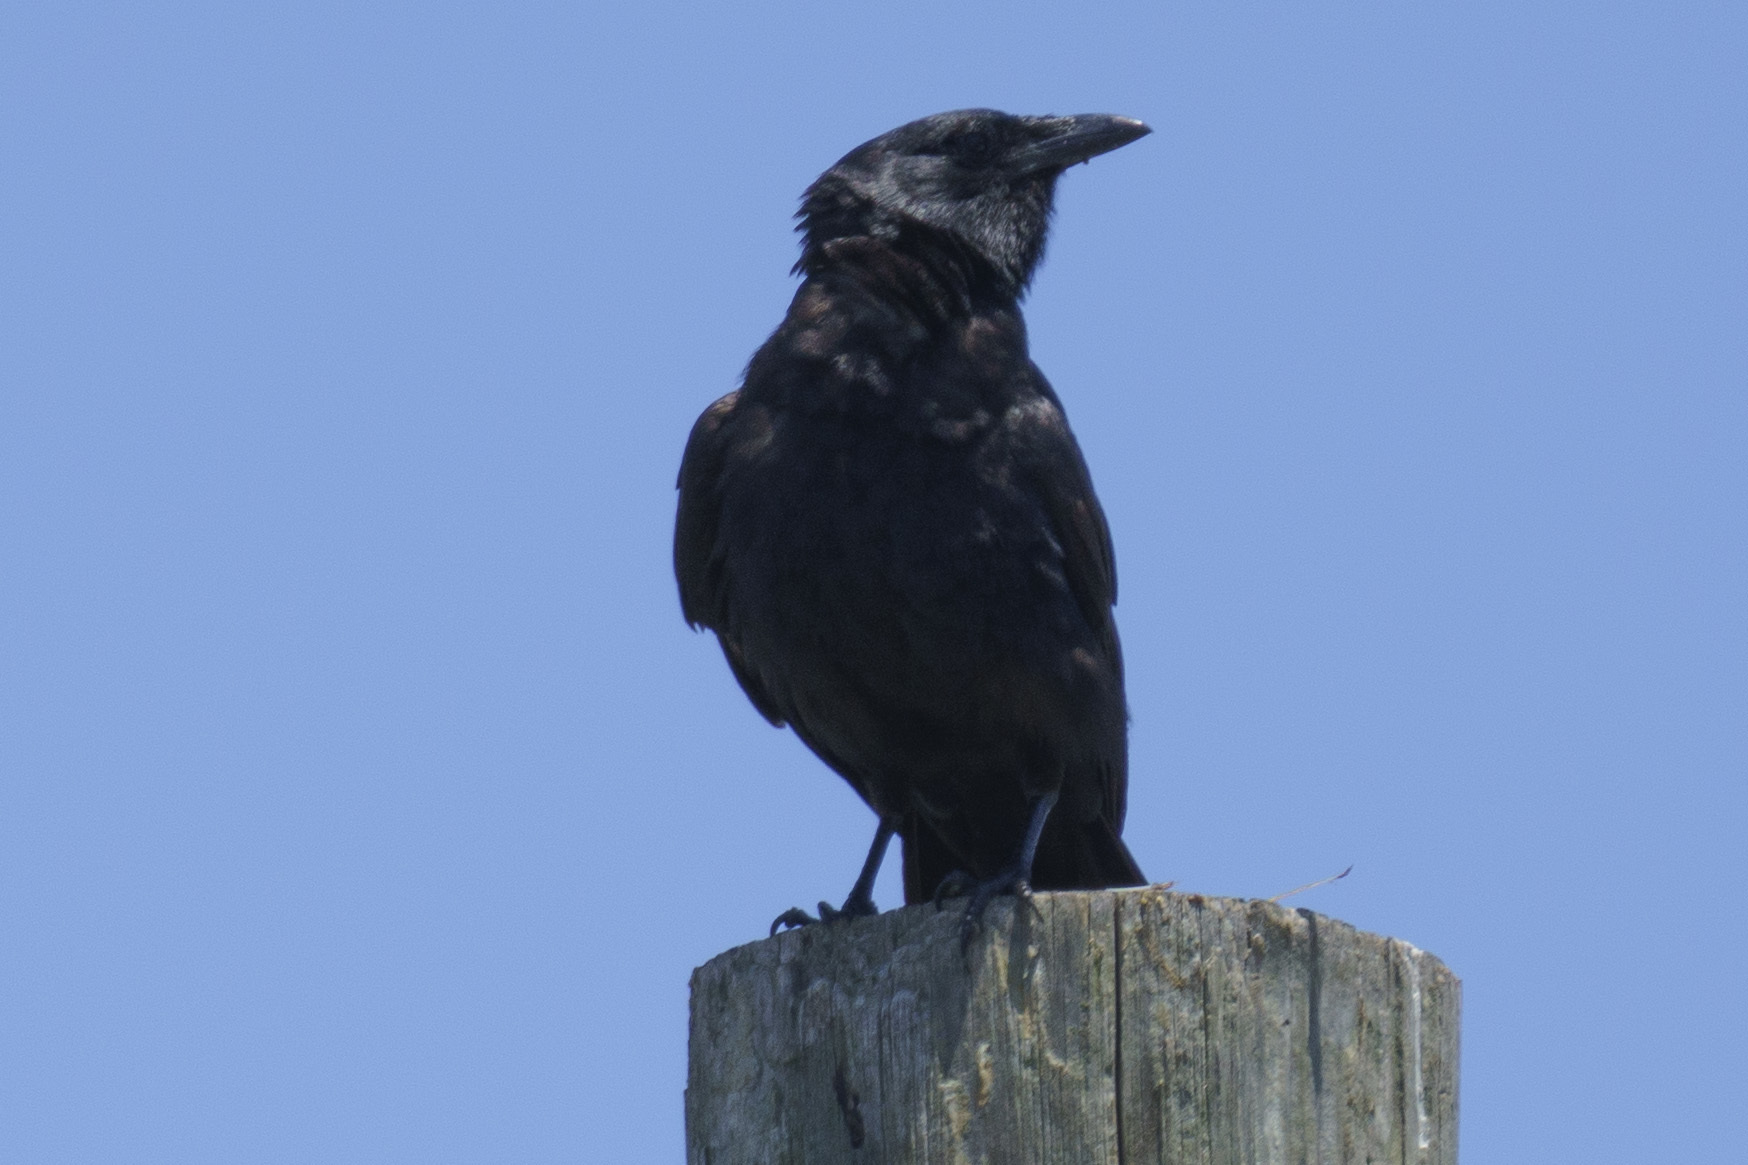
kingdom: Animalia
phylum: Chordata
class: Aves
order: Passeriformes
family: Corvidae
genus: Corvus
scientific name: Corvus ossifragus
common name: Fish crow
